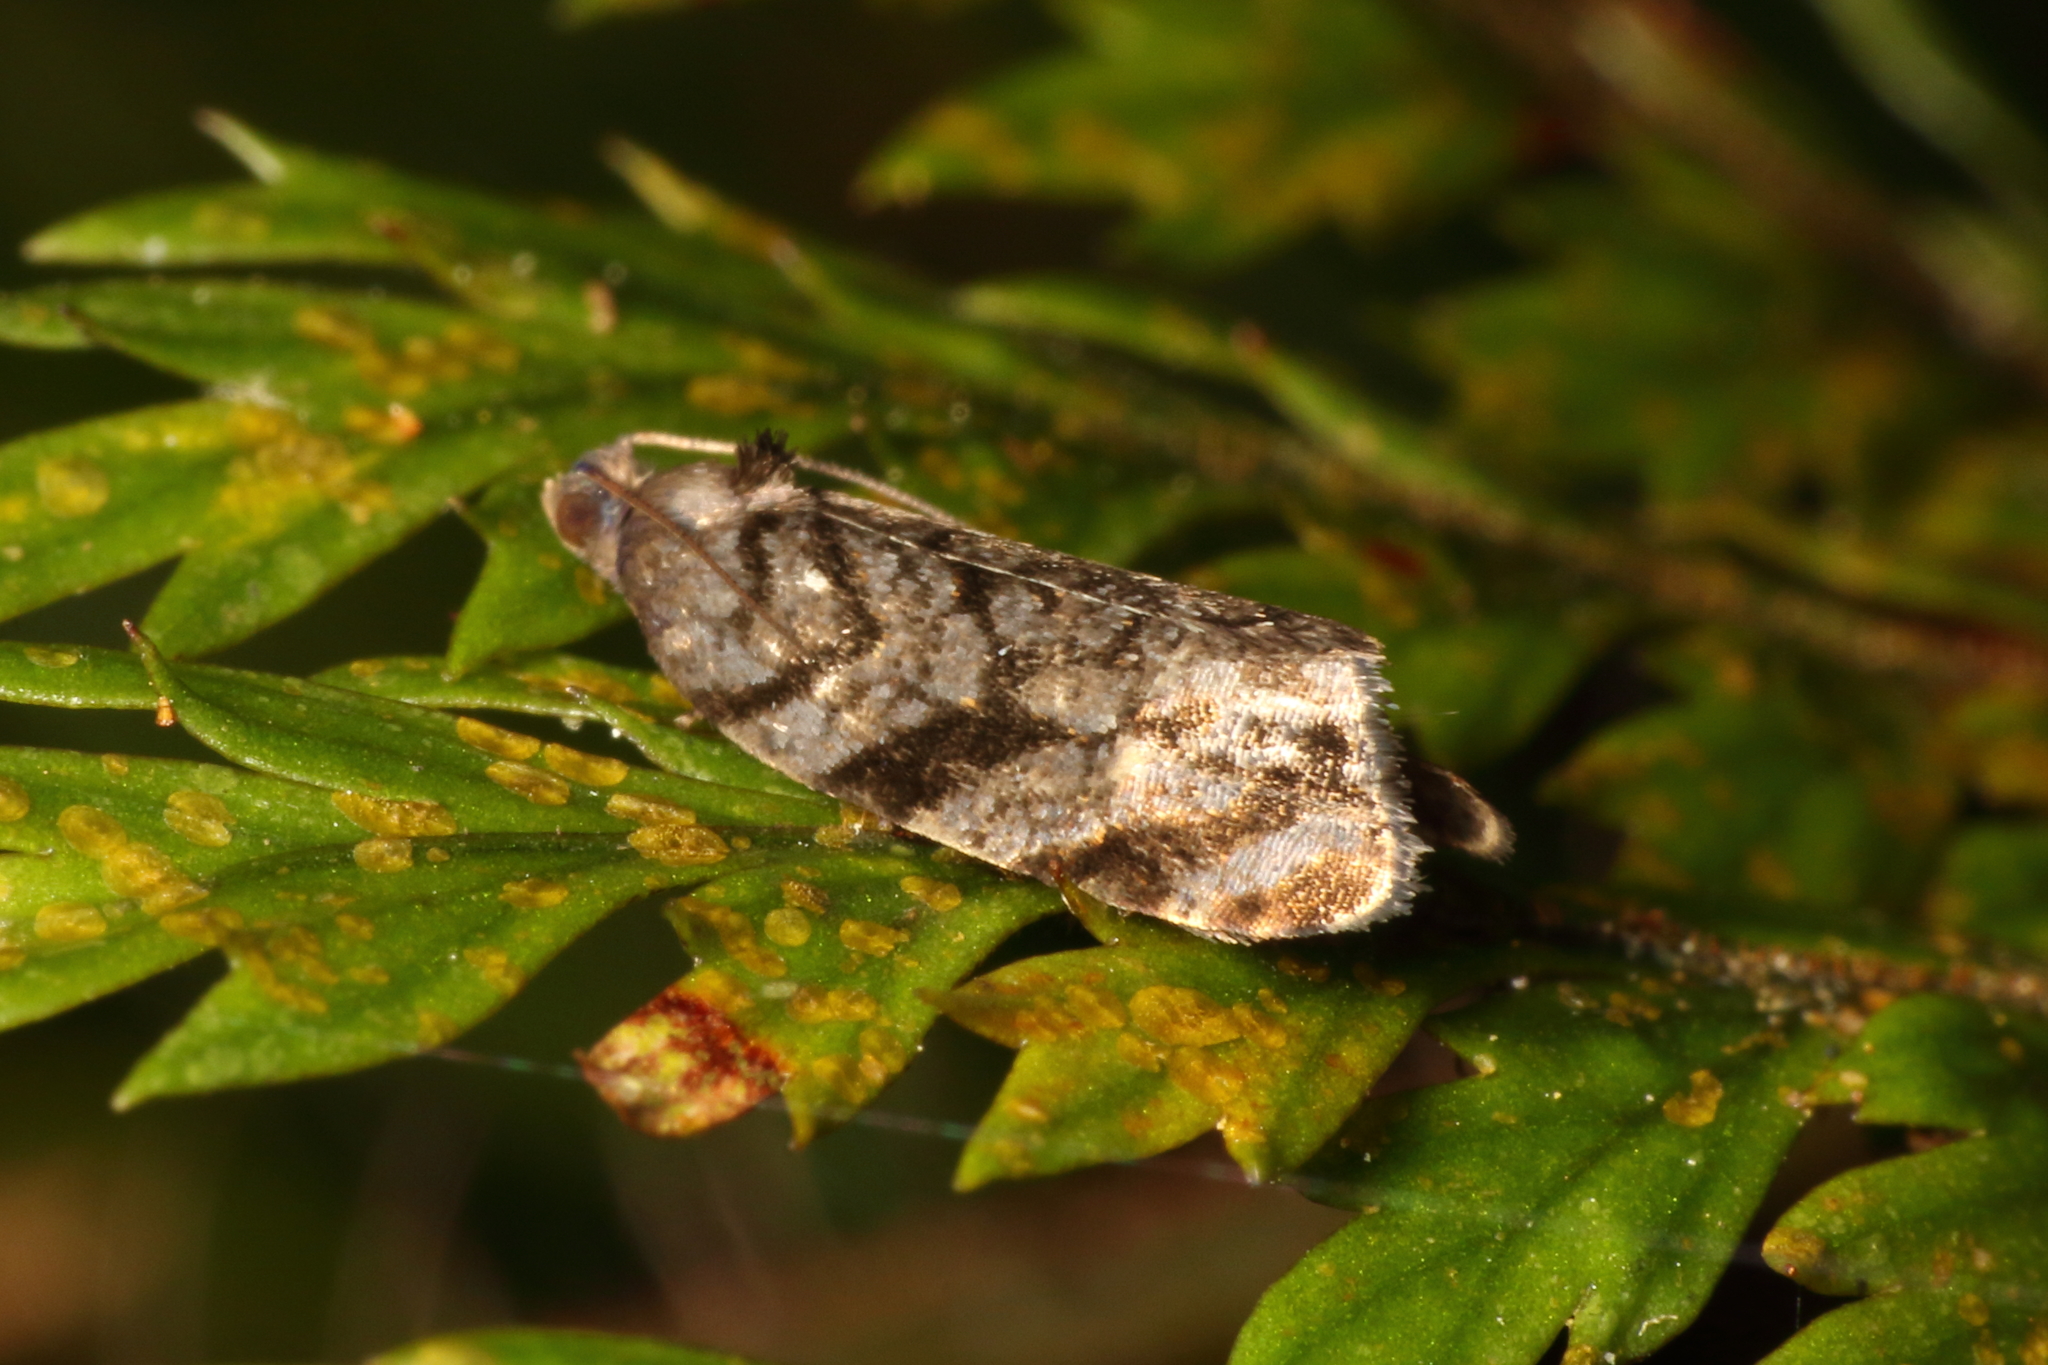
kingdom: Animalia
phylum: Arthropoda
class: Insecta
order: Lepidoptera
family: Tortricidae
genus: Ecclitica
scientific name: Ecclitica hemiclista
